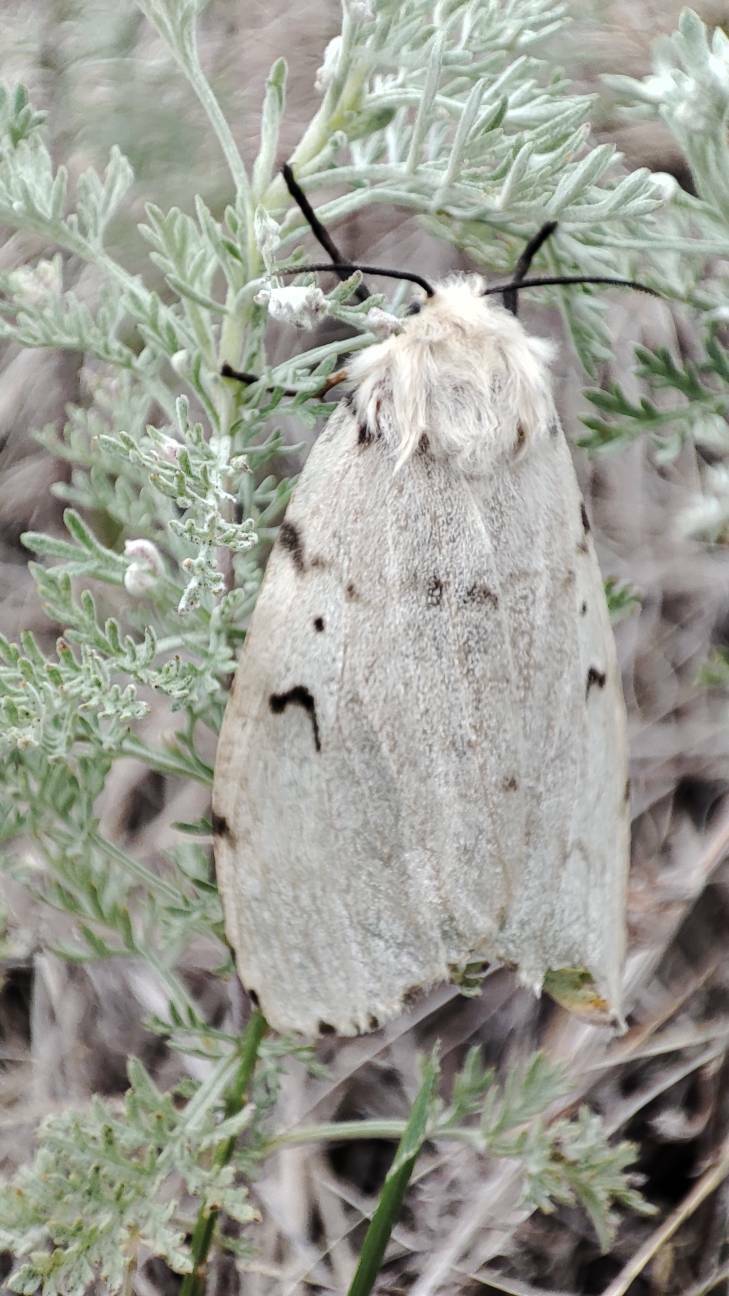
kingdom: Animalia
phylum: Arthropoda
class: Insecta
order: Lepidoptera
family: Erebidae
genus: Lymantria
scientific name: Lymantria dispar
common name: Gypsy moth
